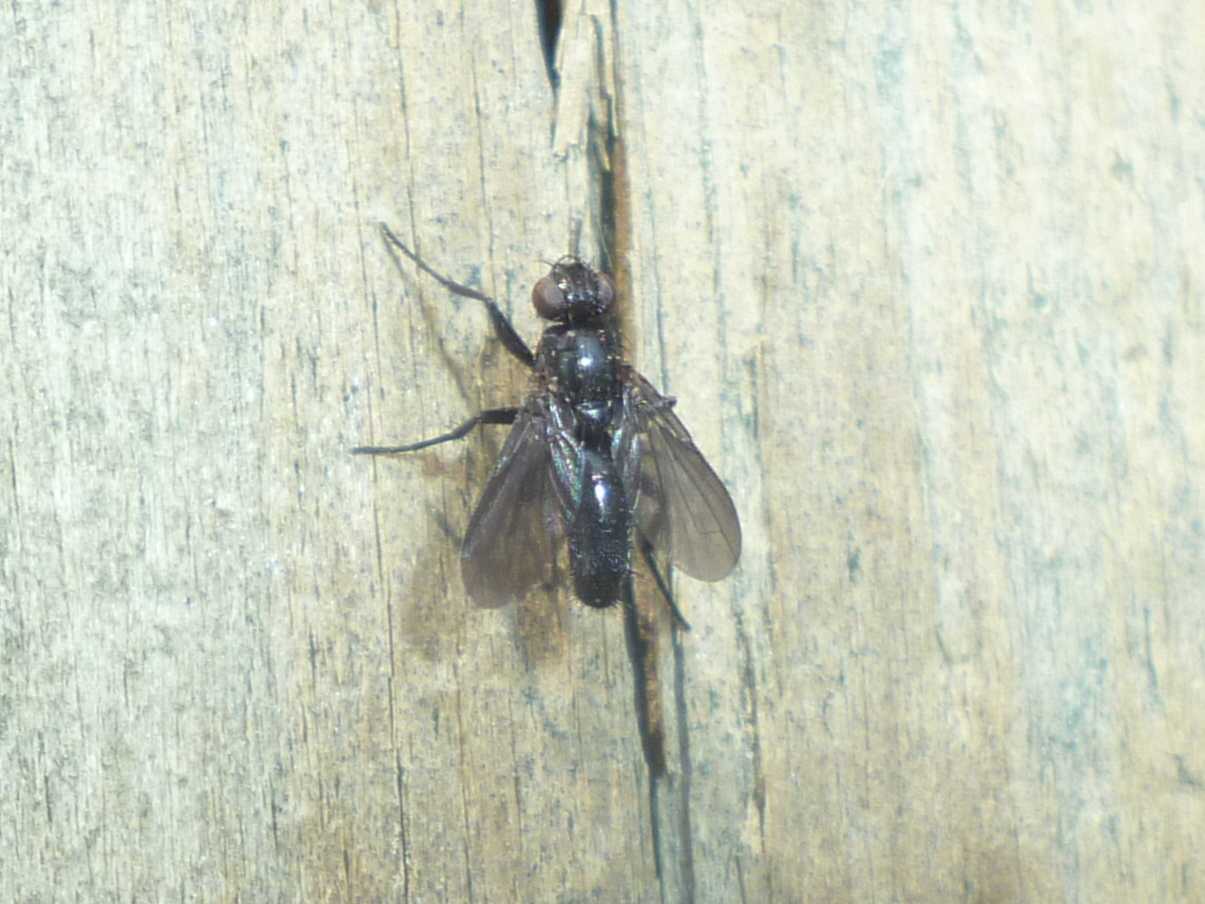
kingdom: Animalia
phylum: Arthropoda
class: Insecta
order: Diptera
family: Calliphoridae
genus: Melanophora
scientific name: Melanophora roralis
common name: Smoky-winged woodlouse-fly
